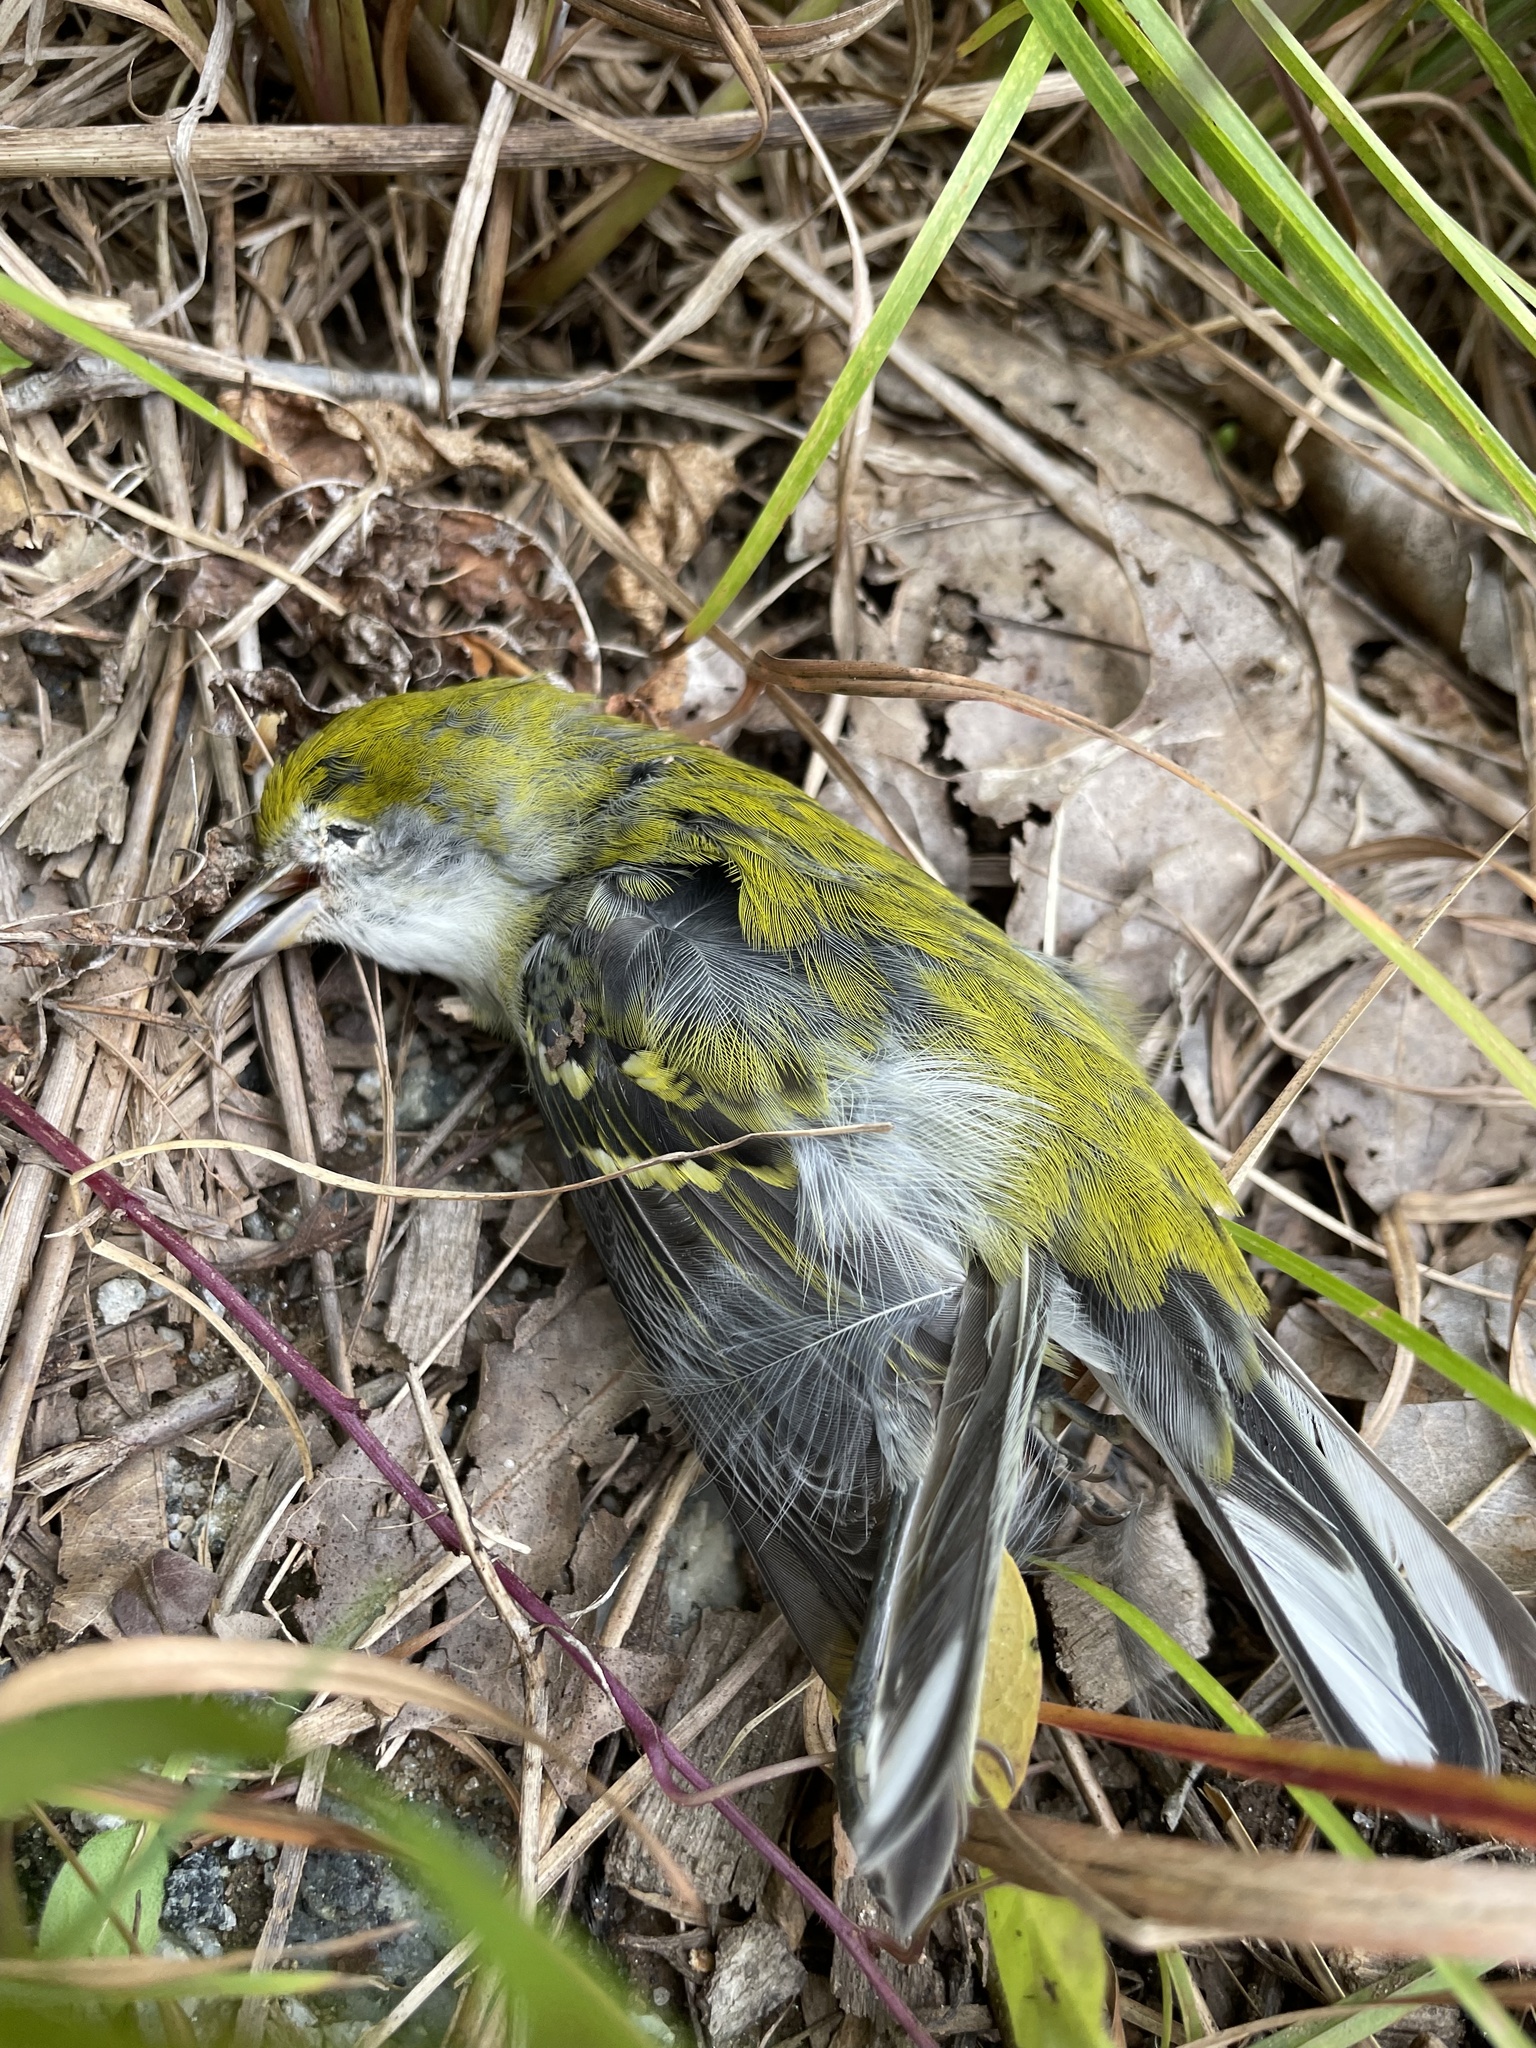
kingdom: Animalia
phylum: Chordata
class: Aves
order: Passeriformes
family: Parulidae
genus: Setophaga
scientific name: Setophaga pensylvanica
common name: Chestnut-sided warbler
